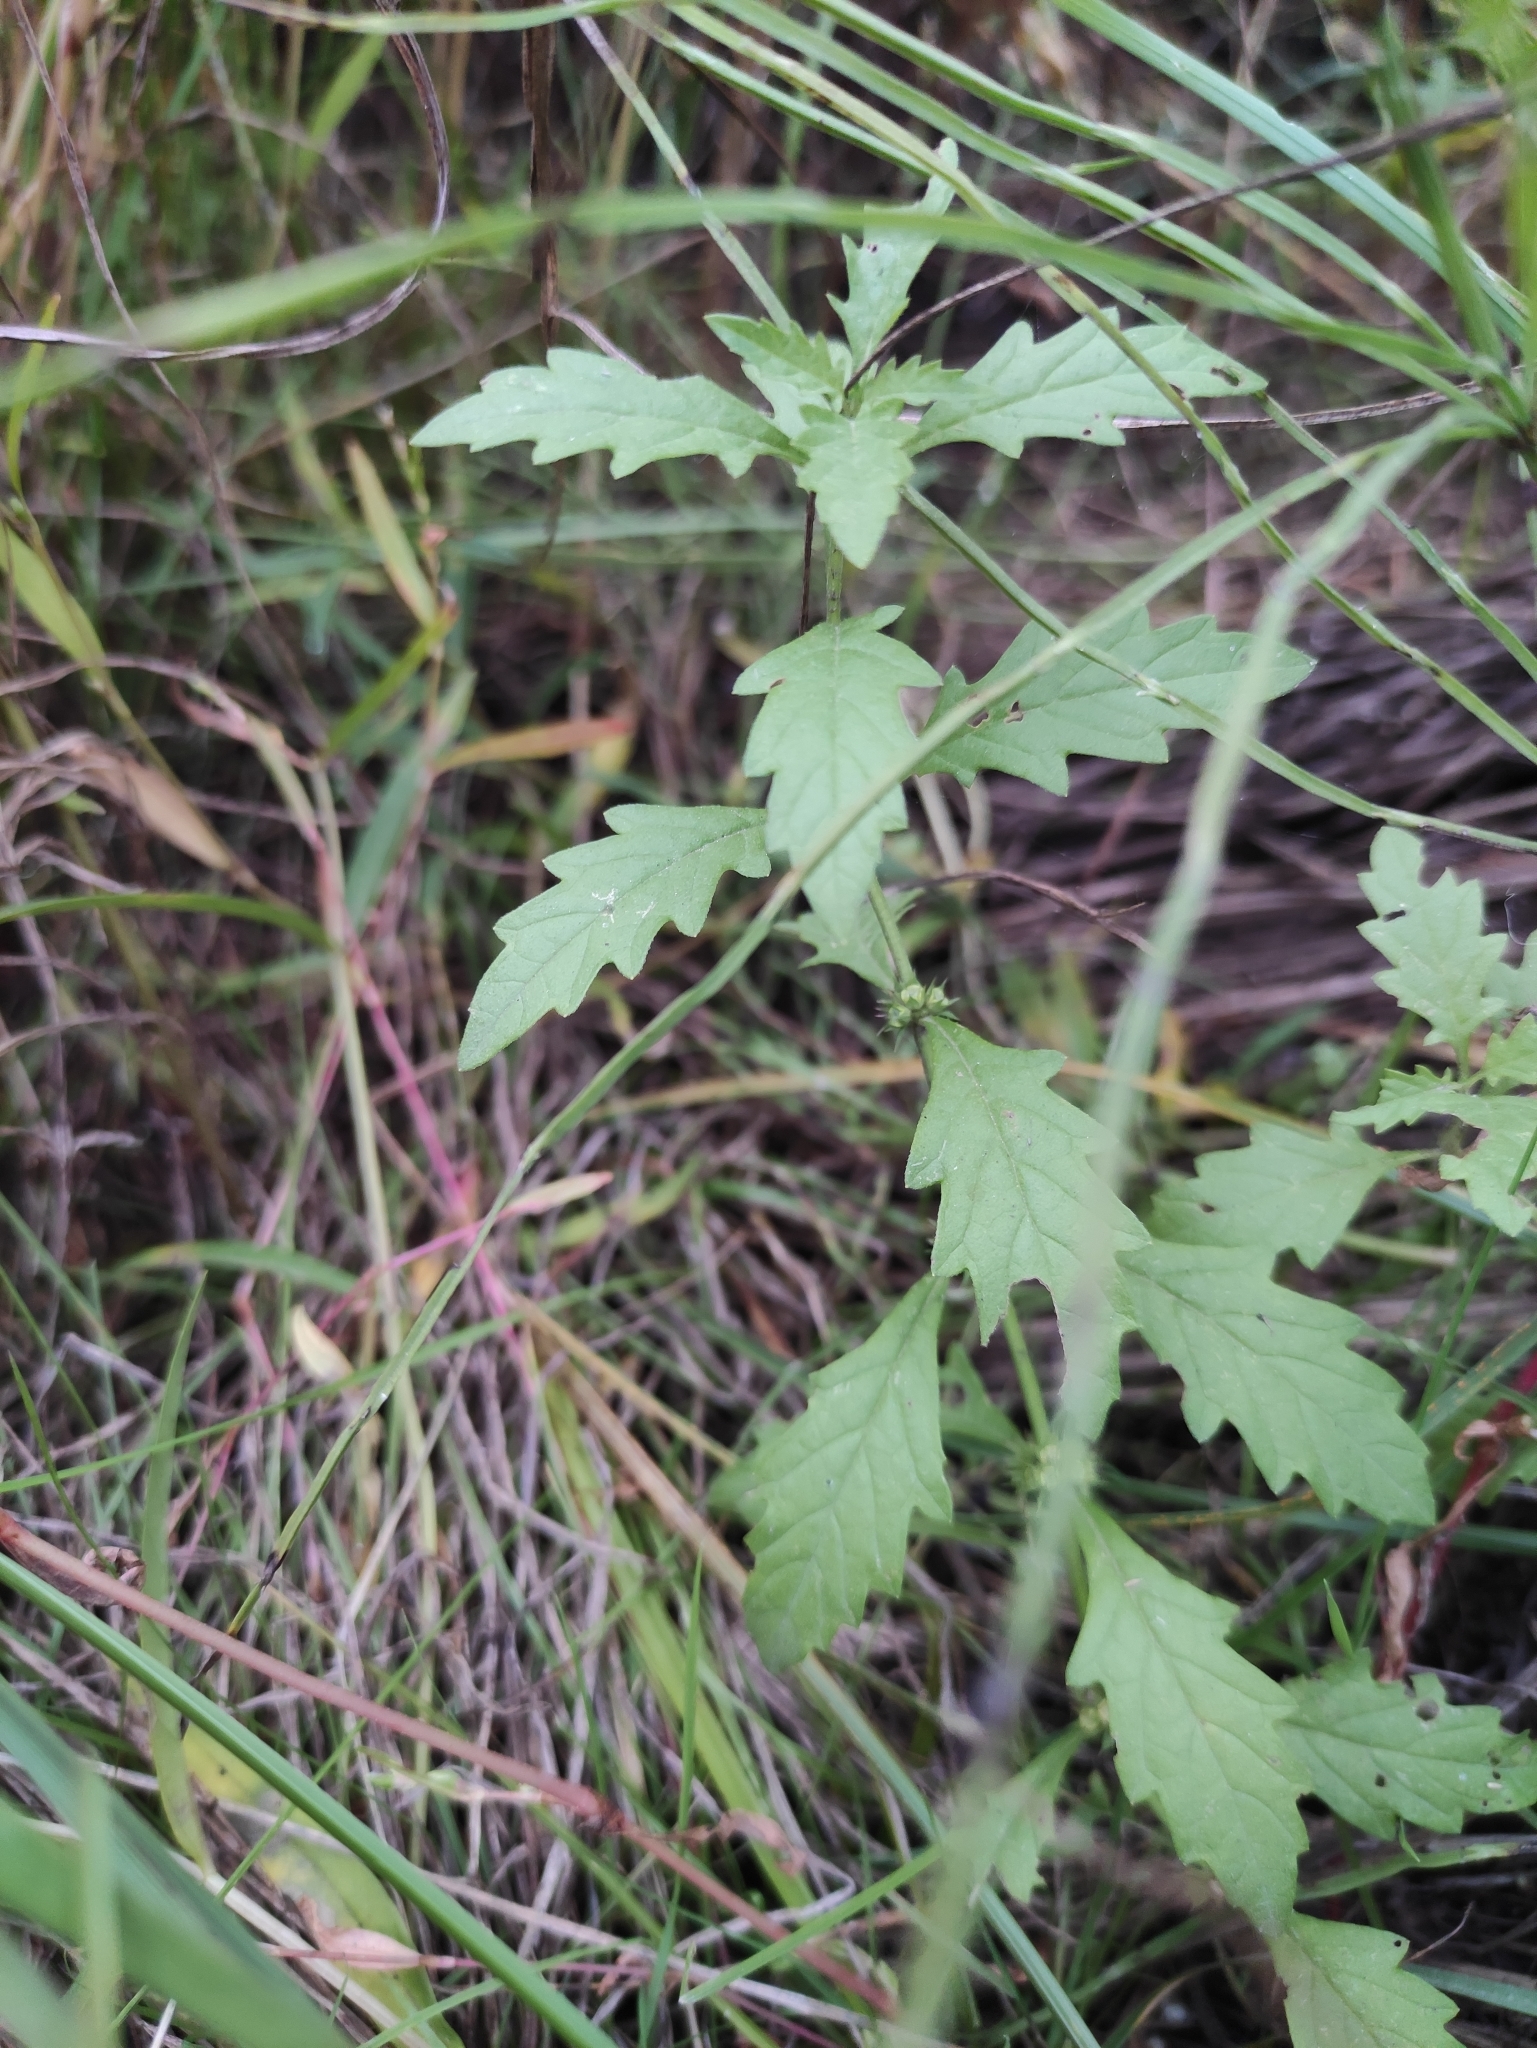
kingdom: Plantae
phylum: Tracheophyta
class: Magnoliopsida
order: Lamiales
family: Lamiaceae
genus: Lycopus
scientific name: Lycopus europaeus
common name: European bugleweed
